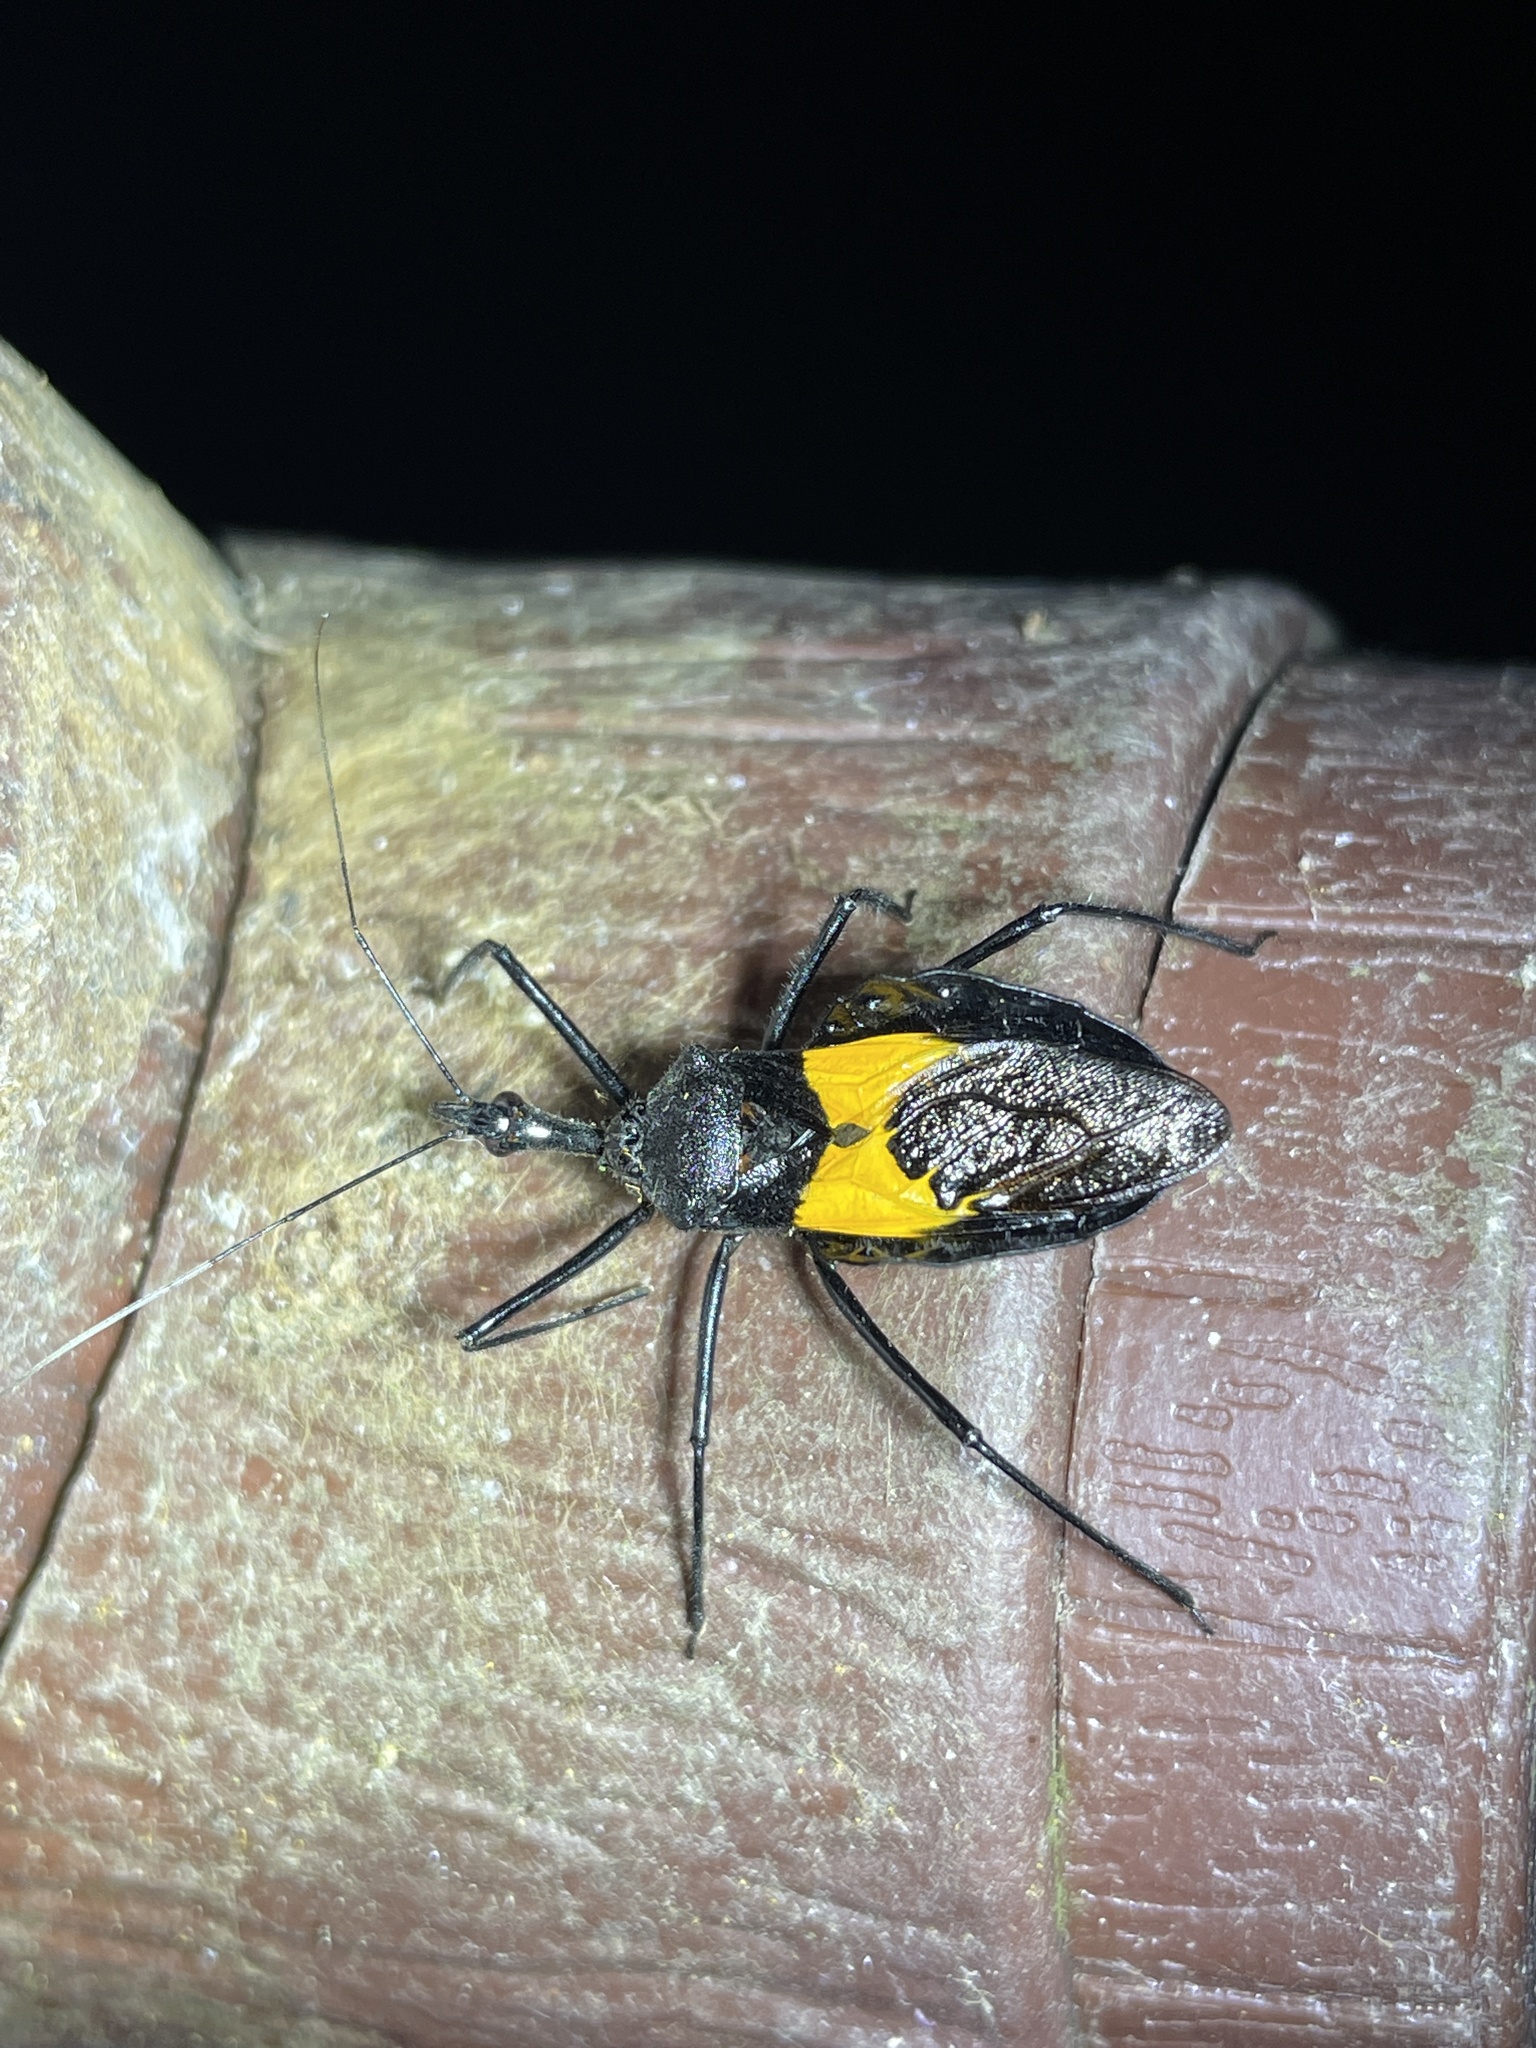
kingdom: Animalia
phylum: Arthropoda
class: Insecta
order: Hemiptera
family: Reduviidae
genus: Sycanus
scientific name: Sycanus croceovittatus
